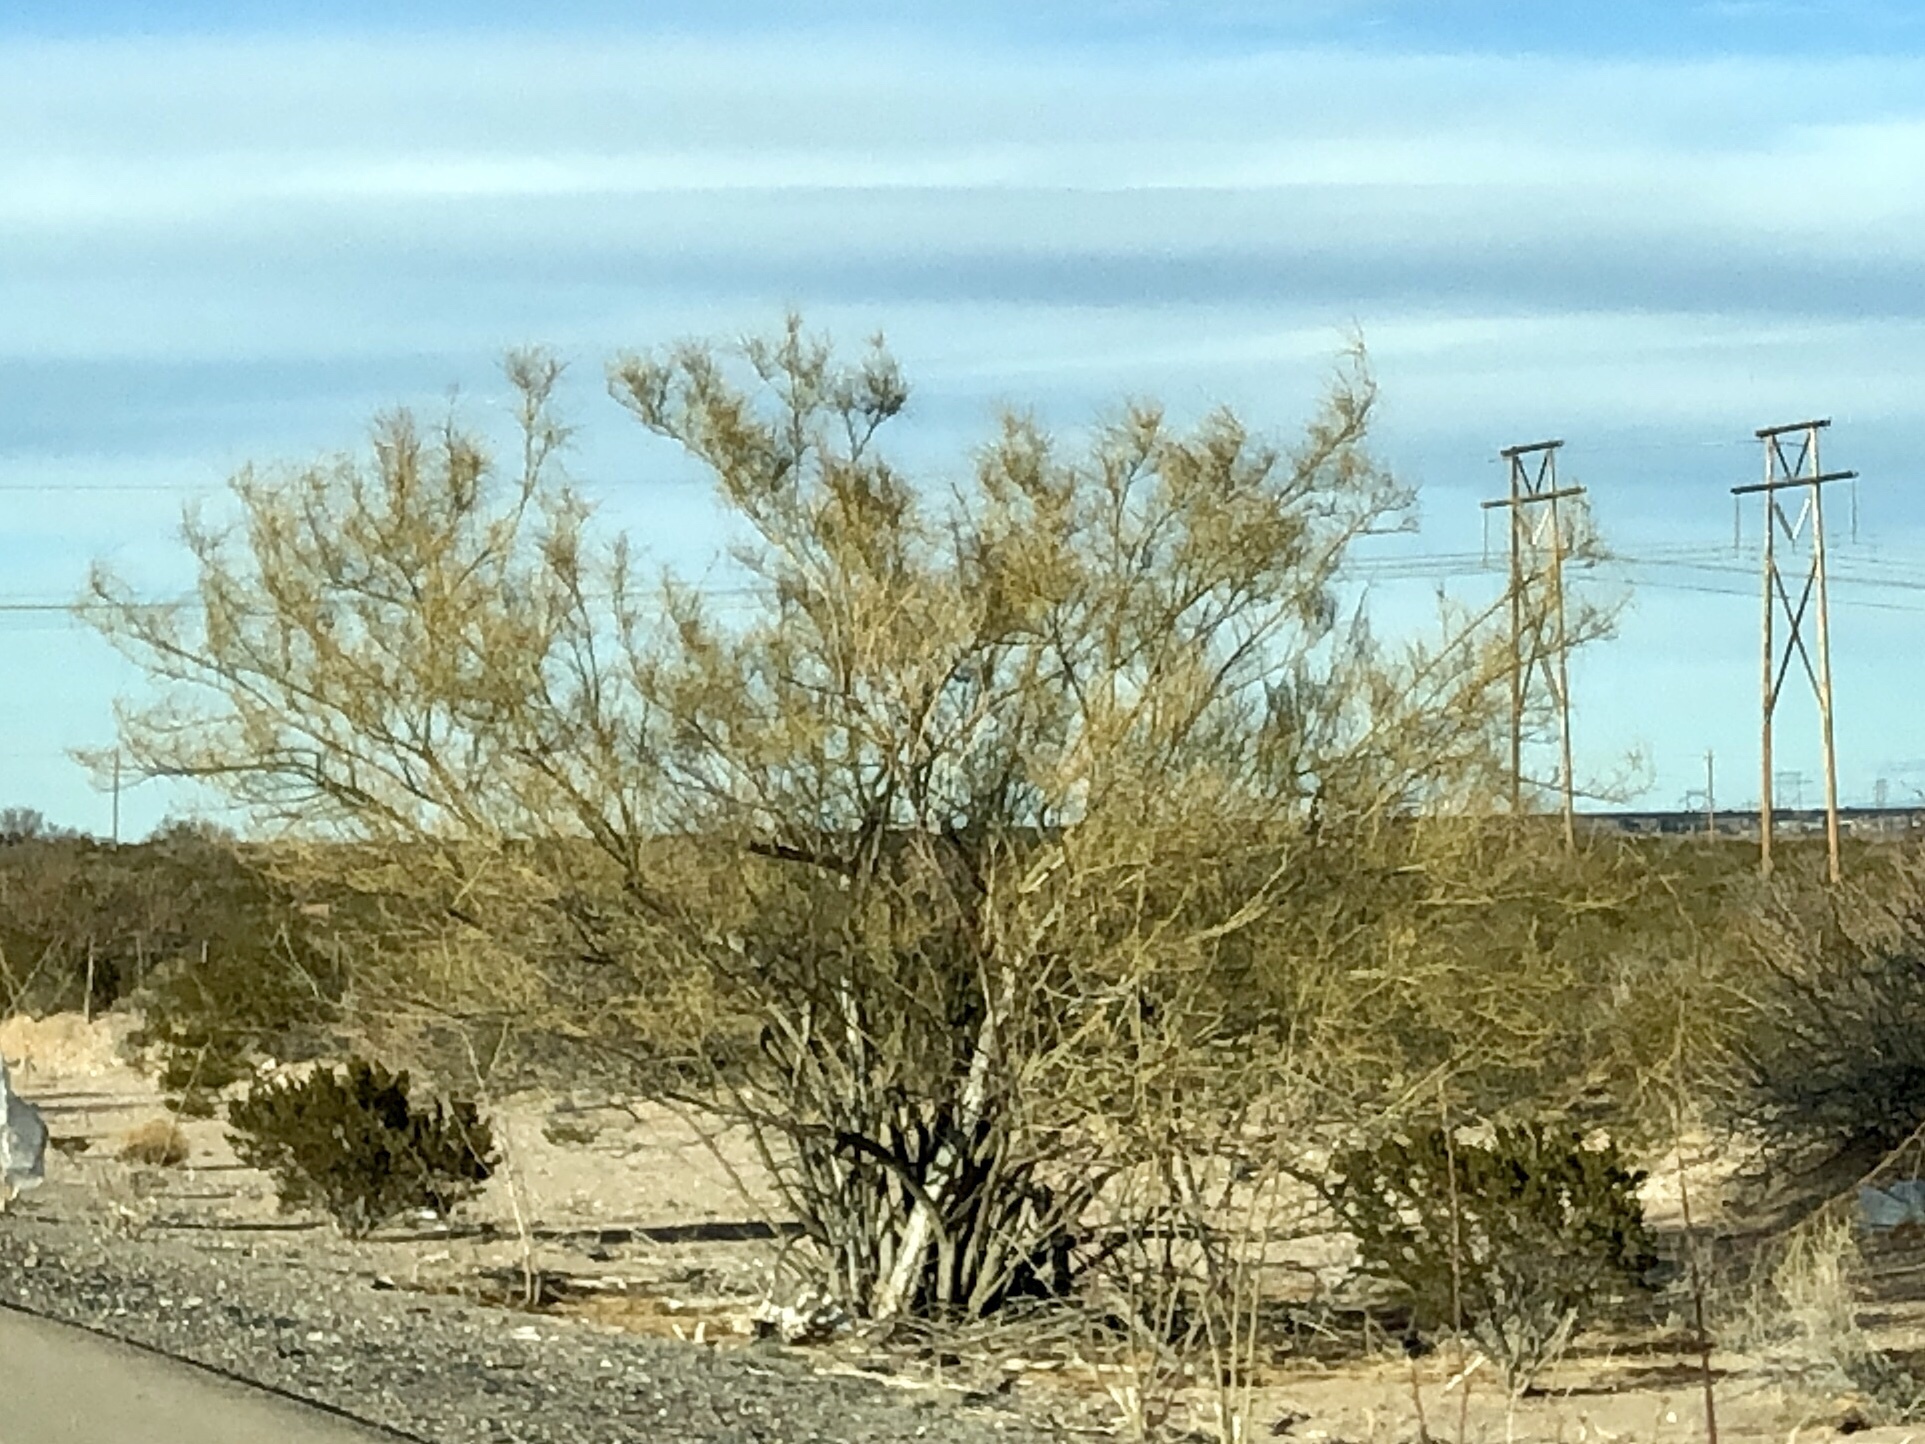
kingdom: Plantae
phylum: Tracheophyta
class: Magnoliopsida
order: Fabales
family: Fabaceae
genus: Parkinsonia
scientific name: Parkinsonia aculeata
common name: Jerusalem thorn
